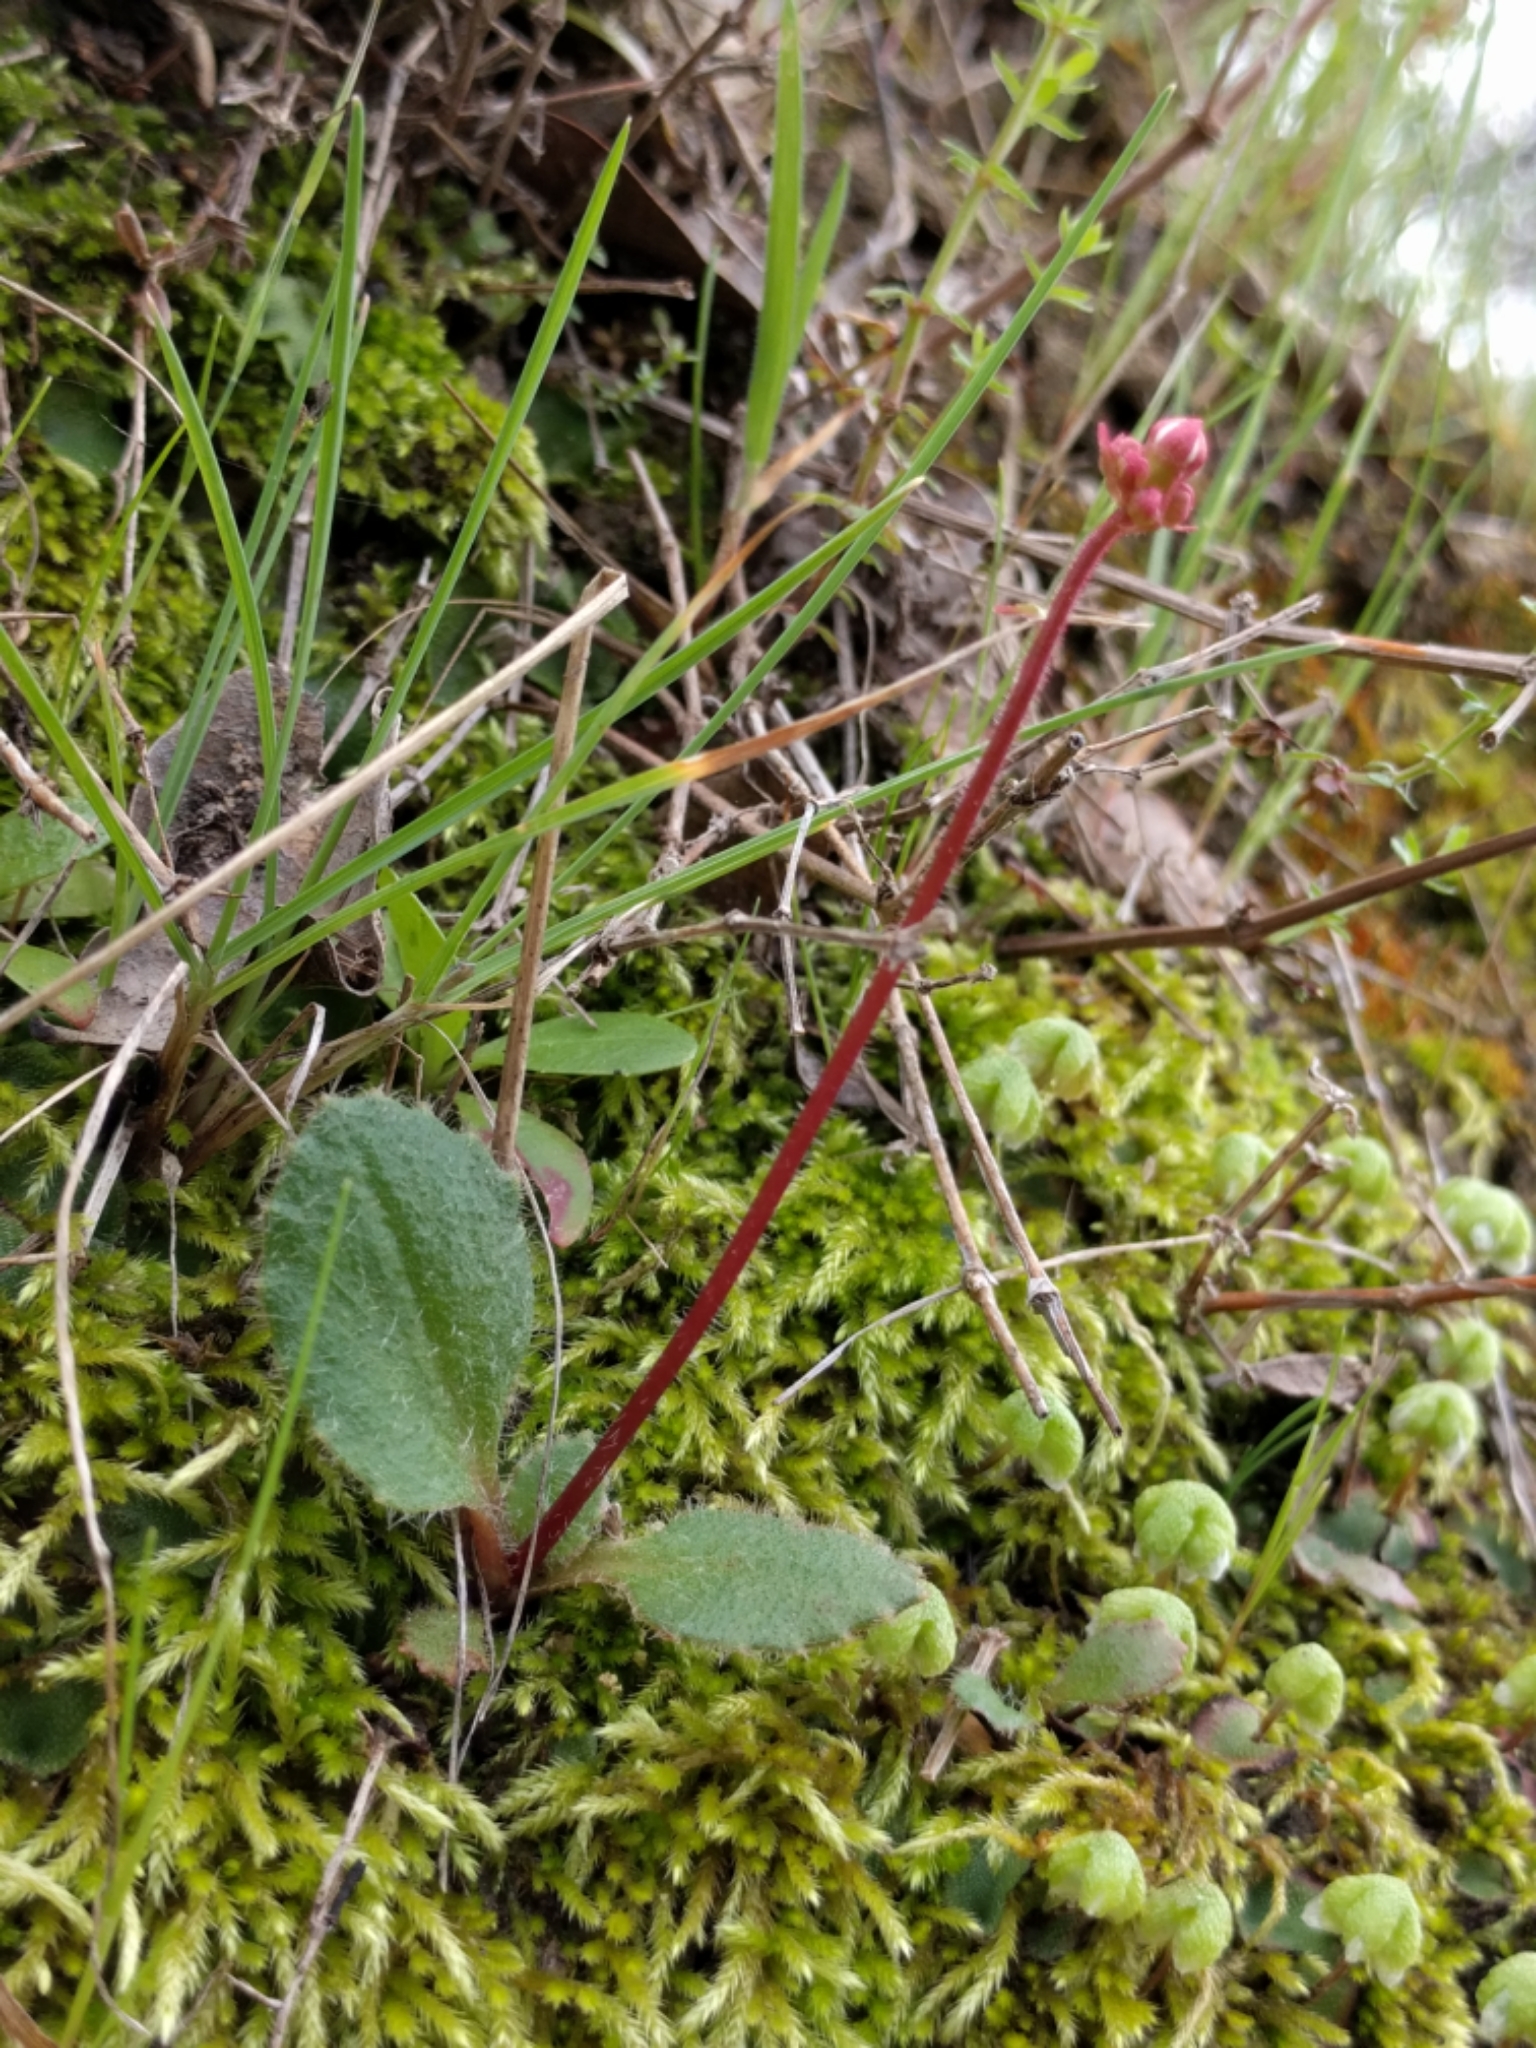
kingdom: Plantae
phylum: Tracheophyta
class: Magnoliopsida
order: Saxifragales
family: Saxifragaceae
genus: Micranthes
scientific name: Micranthes californica
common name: California saxifrage
